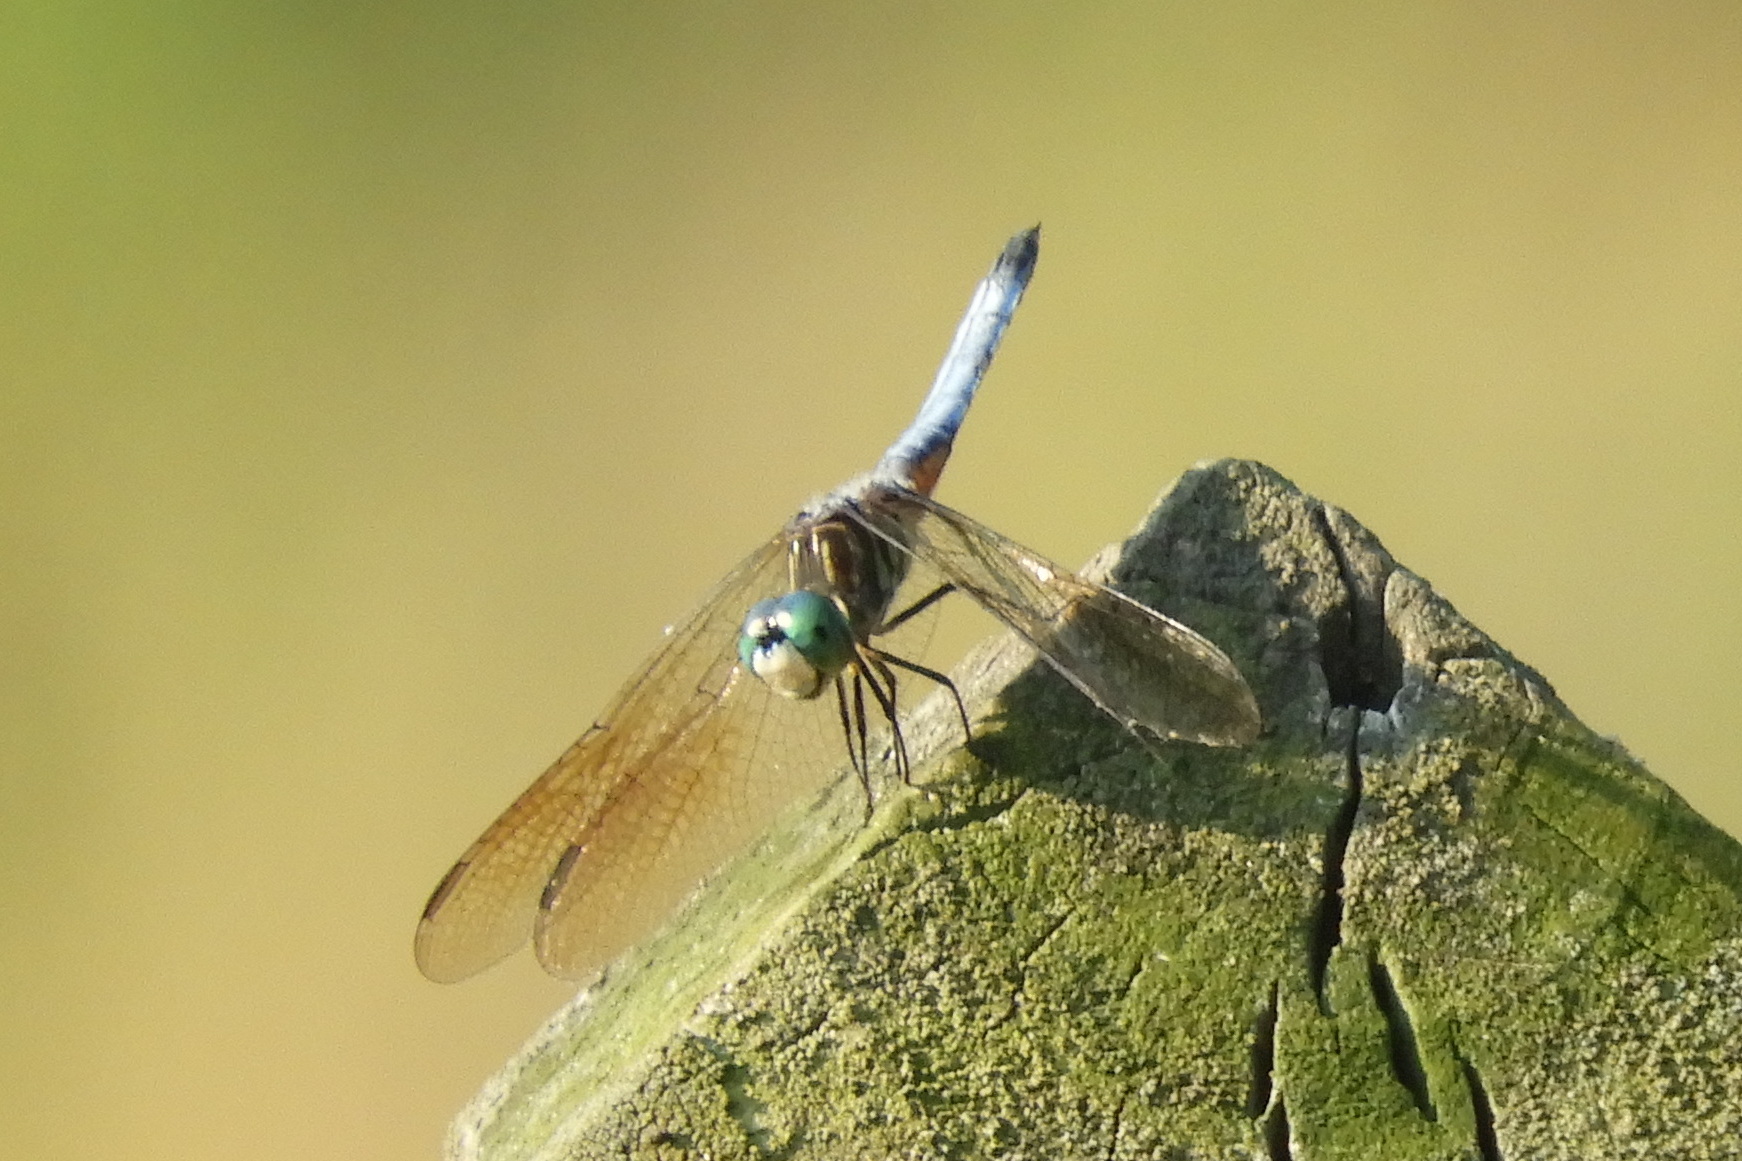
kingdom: Animalia
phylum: Arthropoda
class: Insecta
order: Odonata
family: Libellulidae
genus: Pachydiplax
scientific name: Pachydiplax longipennis
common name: Blue dasher
